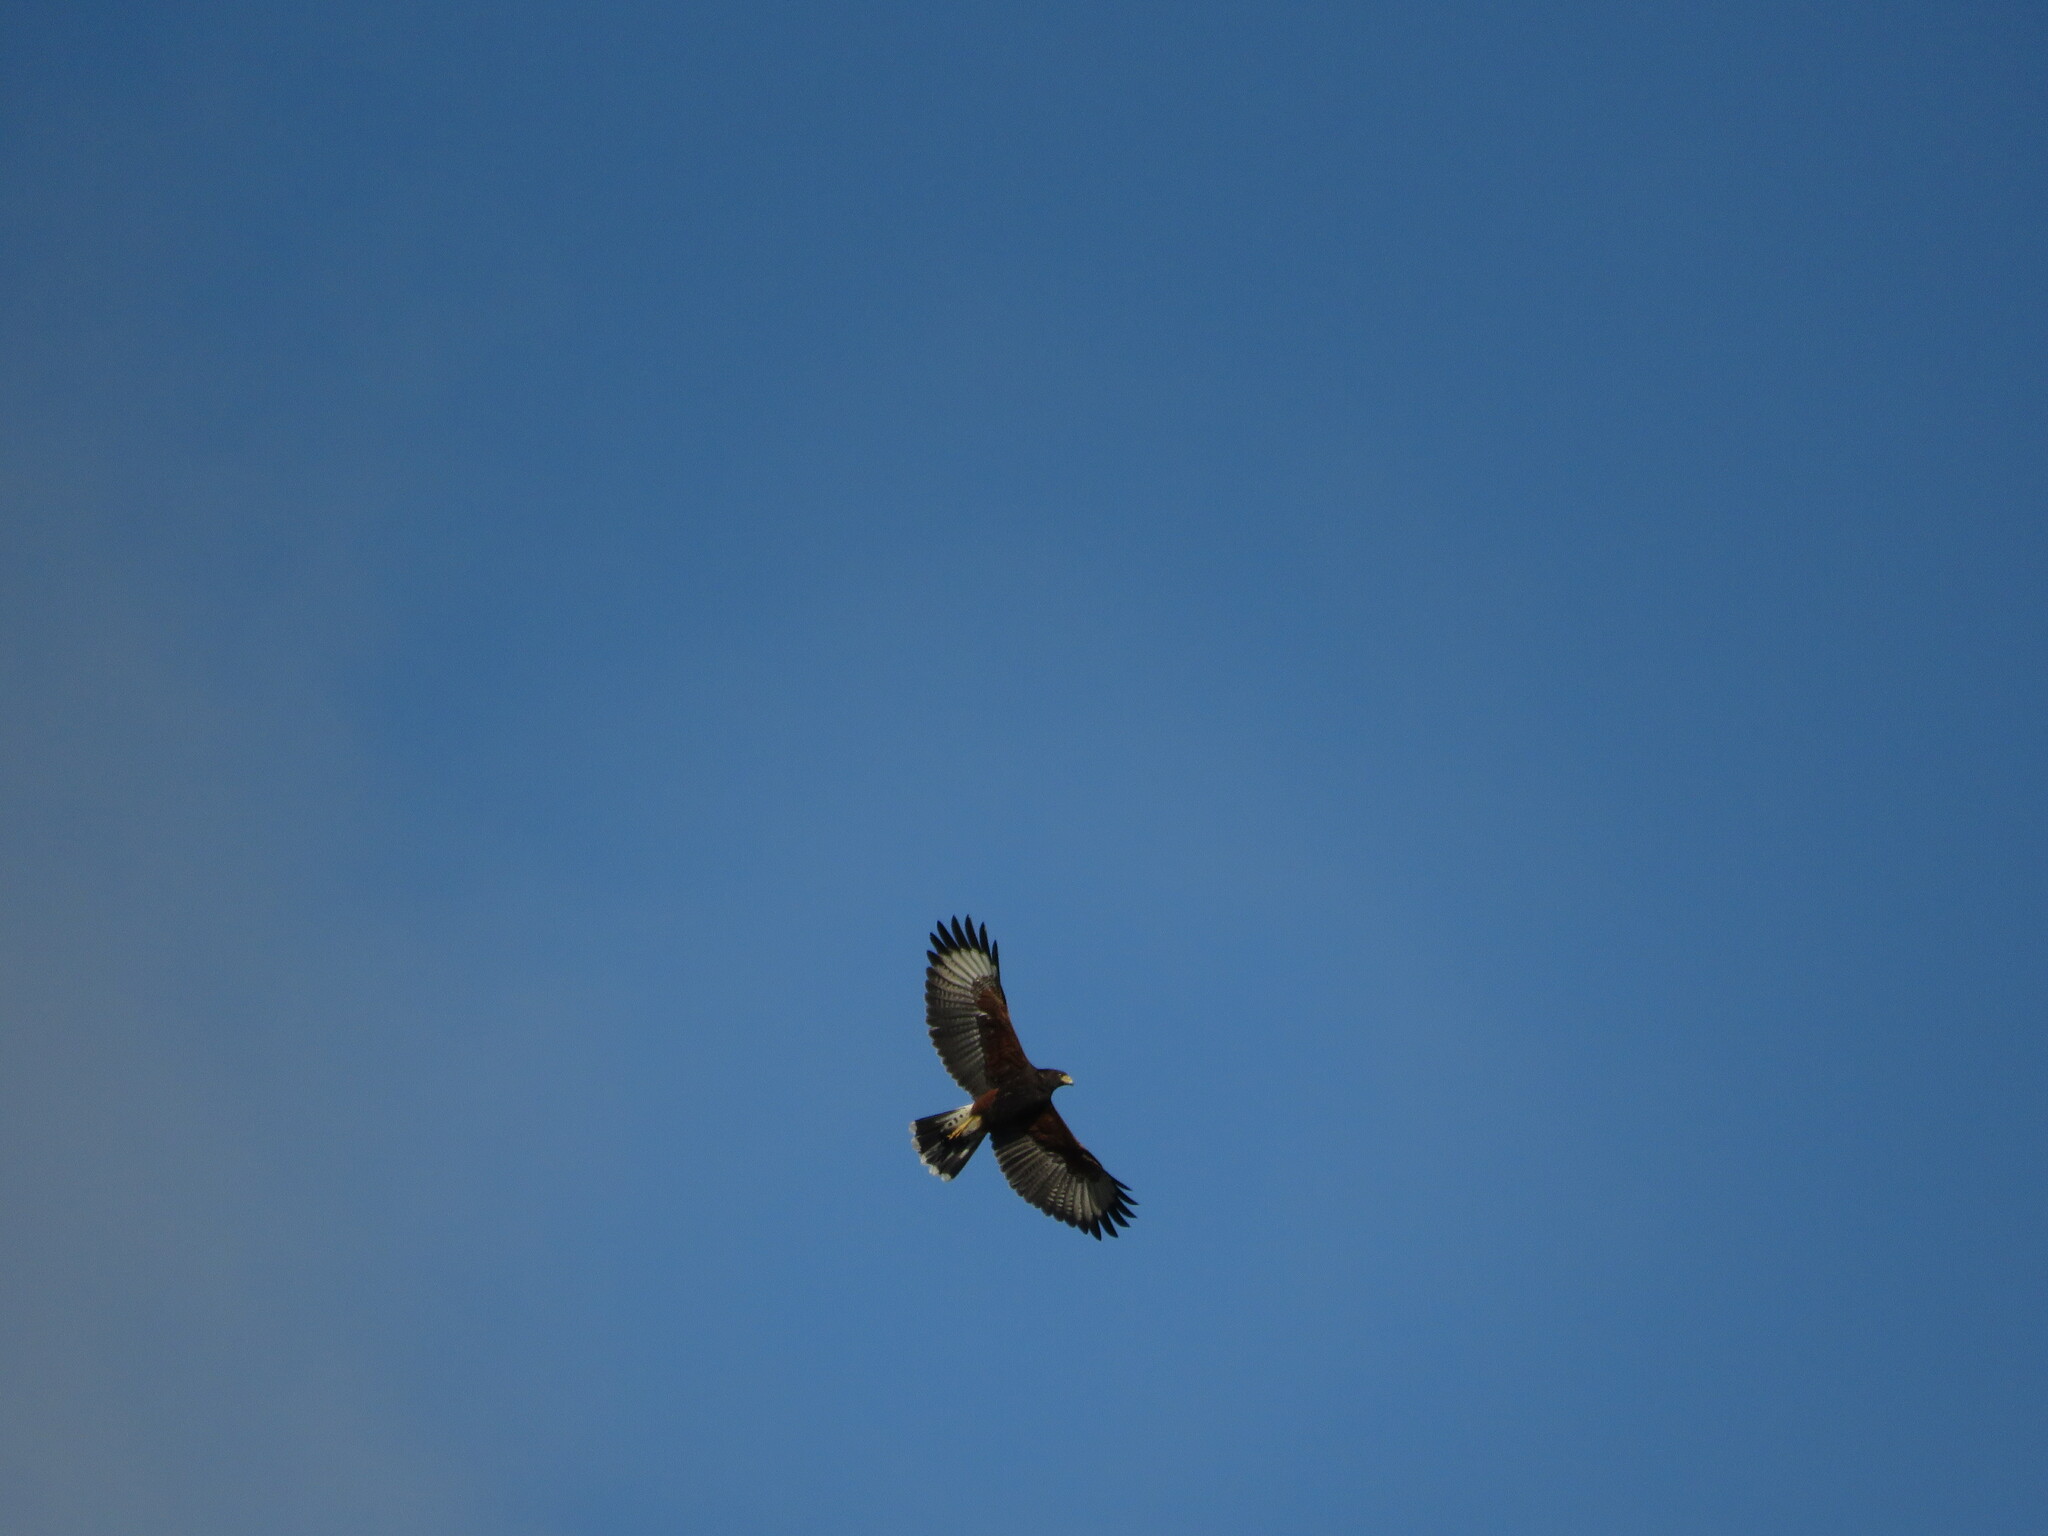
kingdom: Animalia
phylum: Chordata
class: Aves
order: Accipitriformes
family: Accipitridae
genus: Parabuteo
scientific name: Parabuteo unicinctus
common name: Harris's hawk
